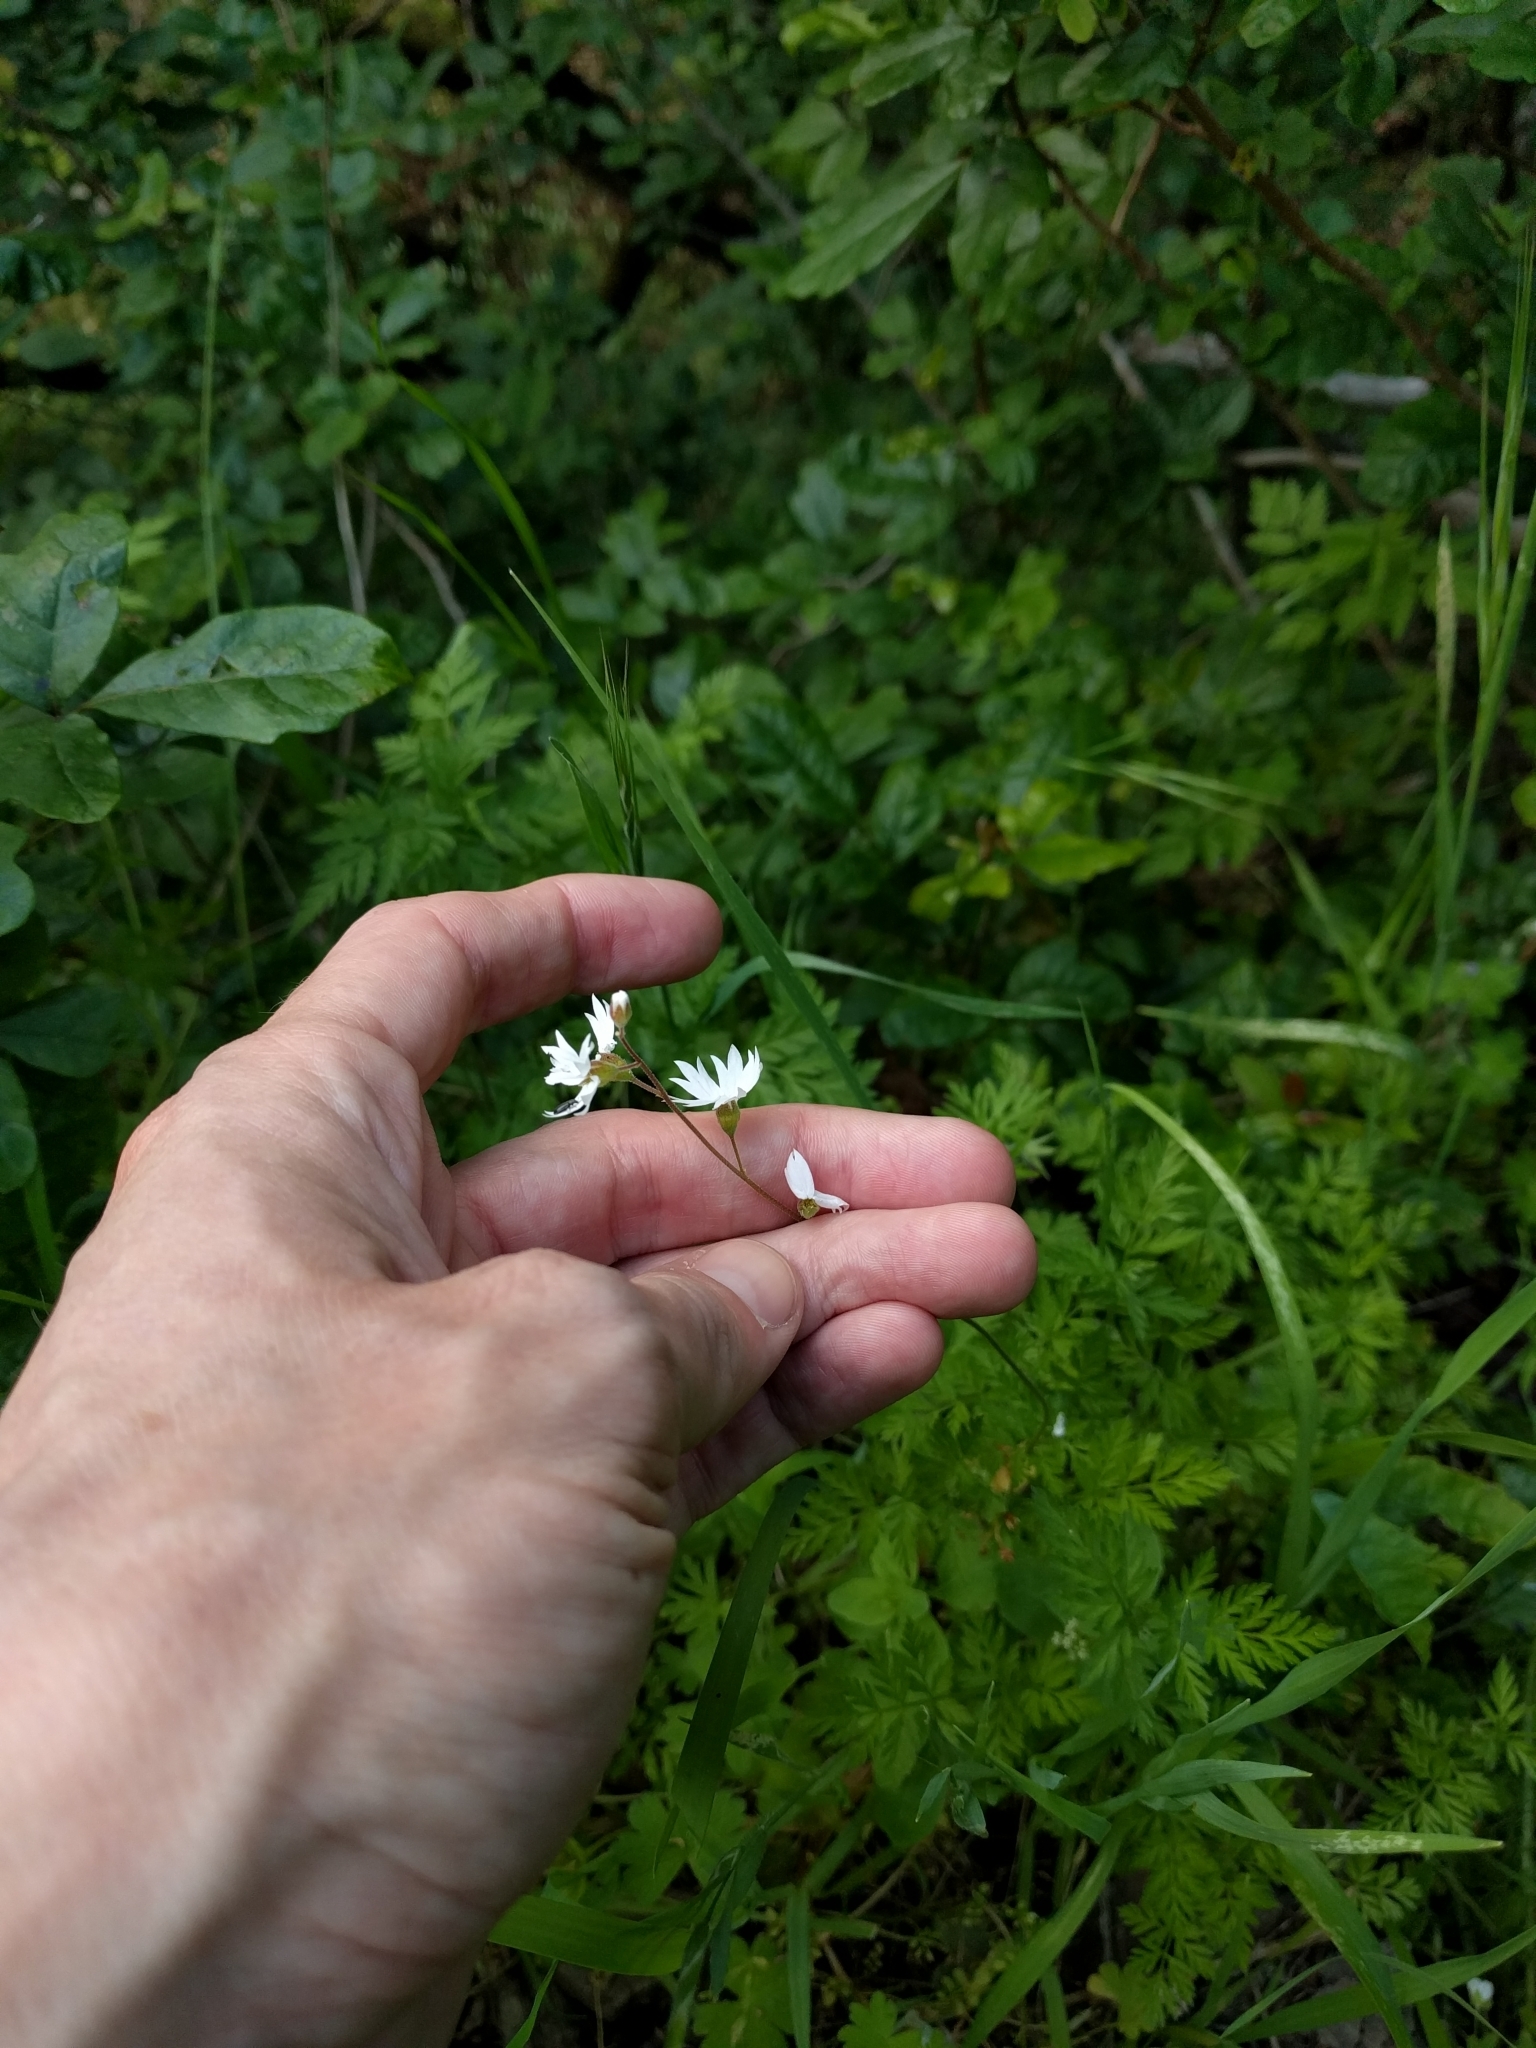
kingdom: Plantae
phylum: Tracheophyta
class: Magnoliopsida
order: Saxifragales
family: Saxifragaceae
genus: Lithophragma
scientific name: Lithophragma affine
